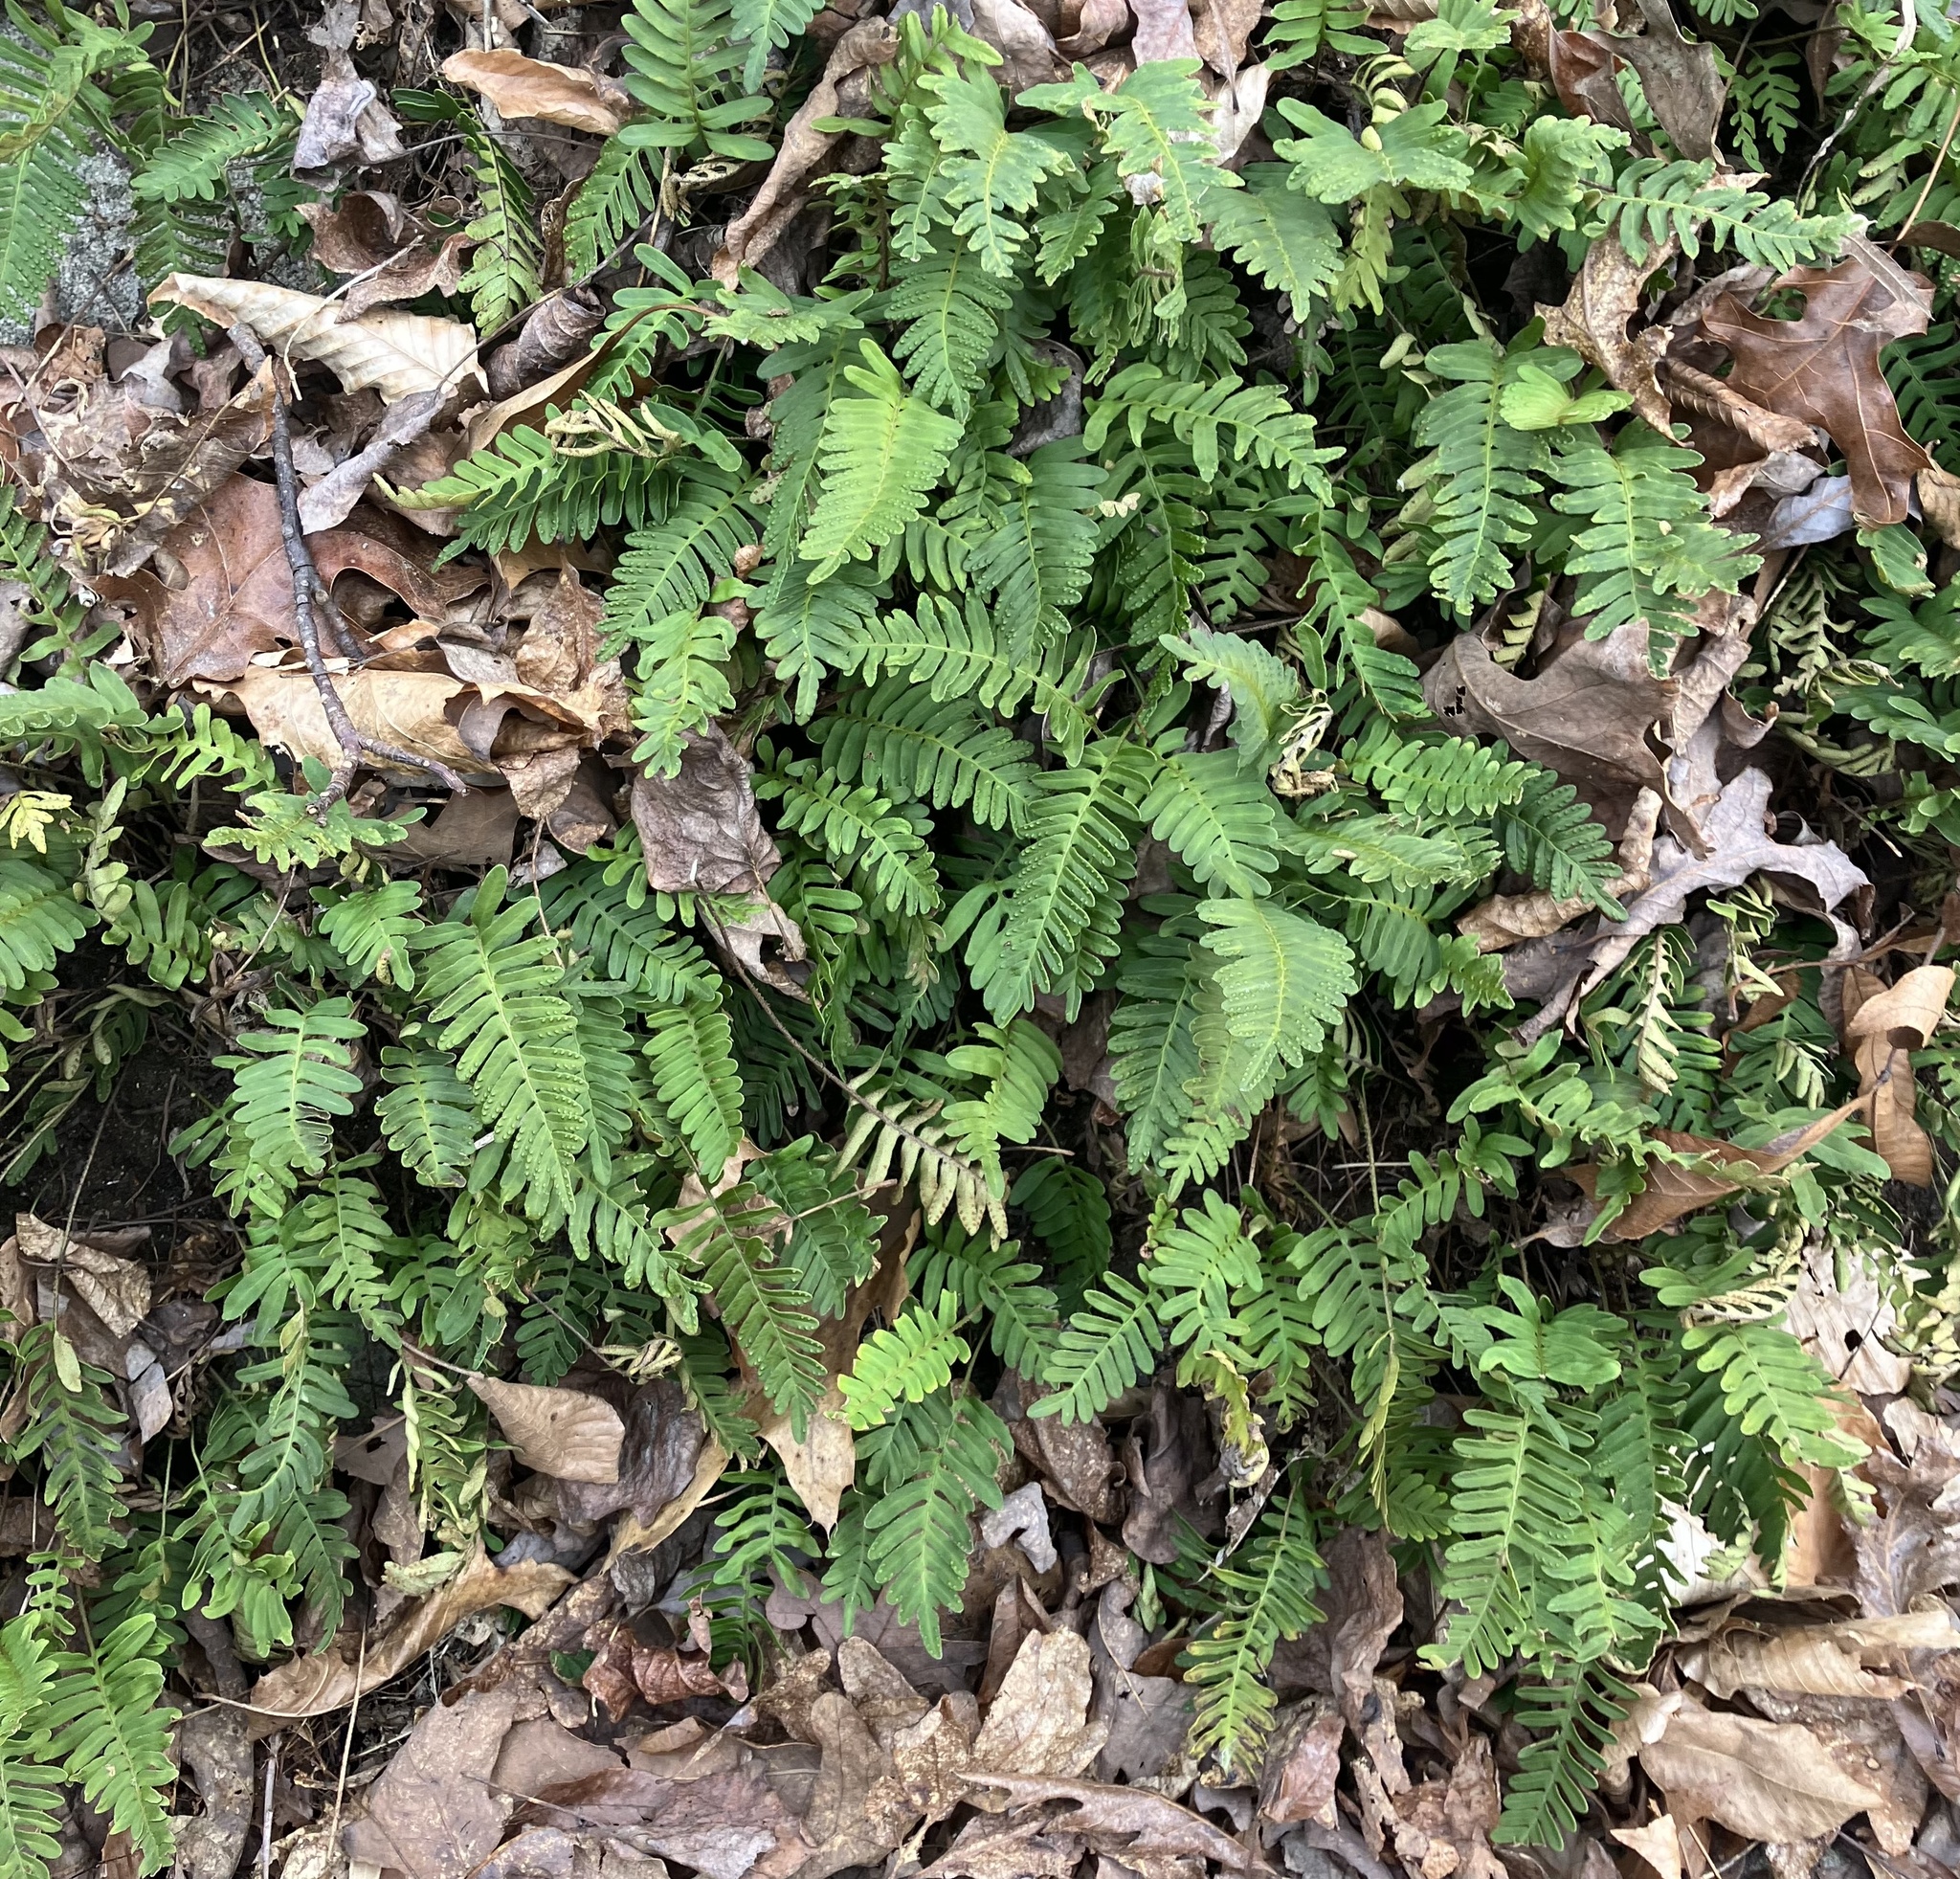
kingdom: Plantae
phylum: Tracheophyta
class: Polypodiopsida
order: Polypodiales
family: Polypodiaceae
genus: Pleopeltis
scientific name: Pleopeltis michauxiana
